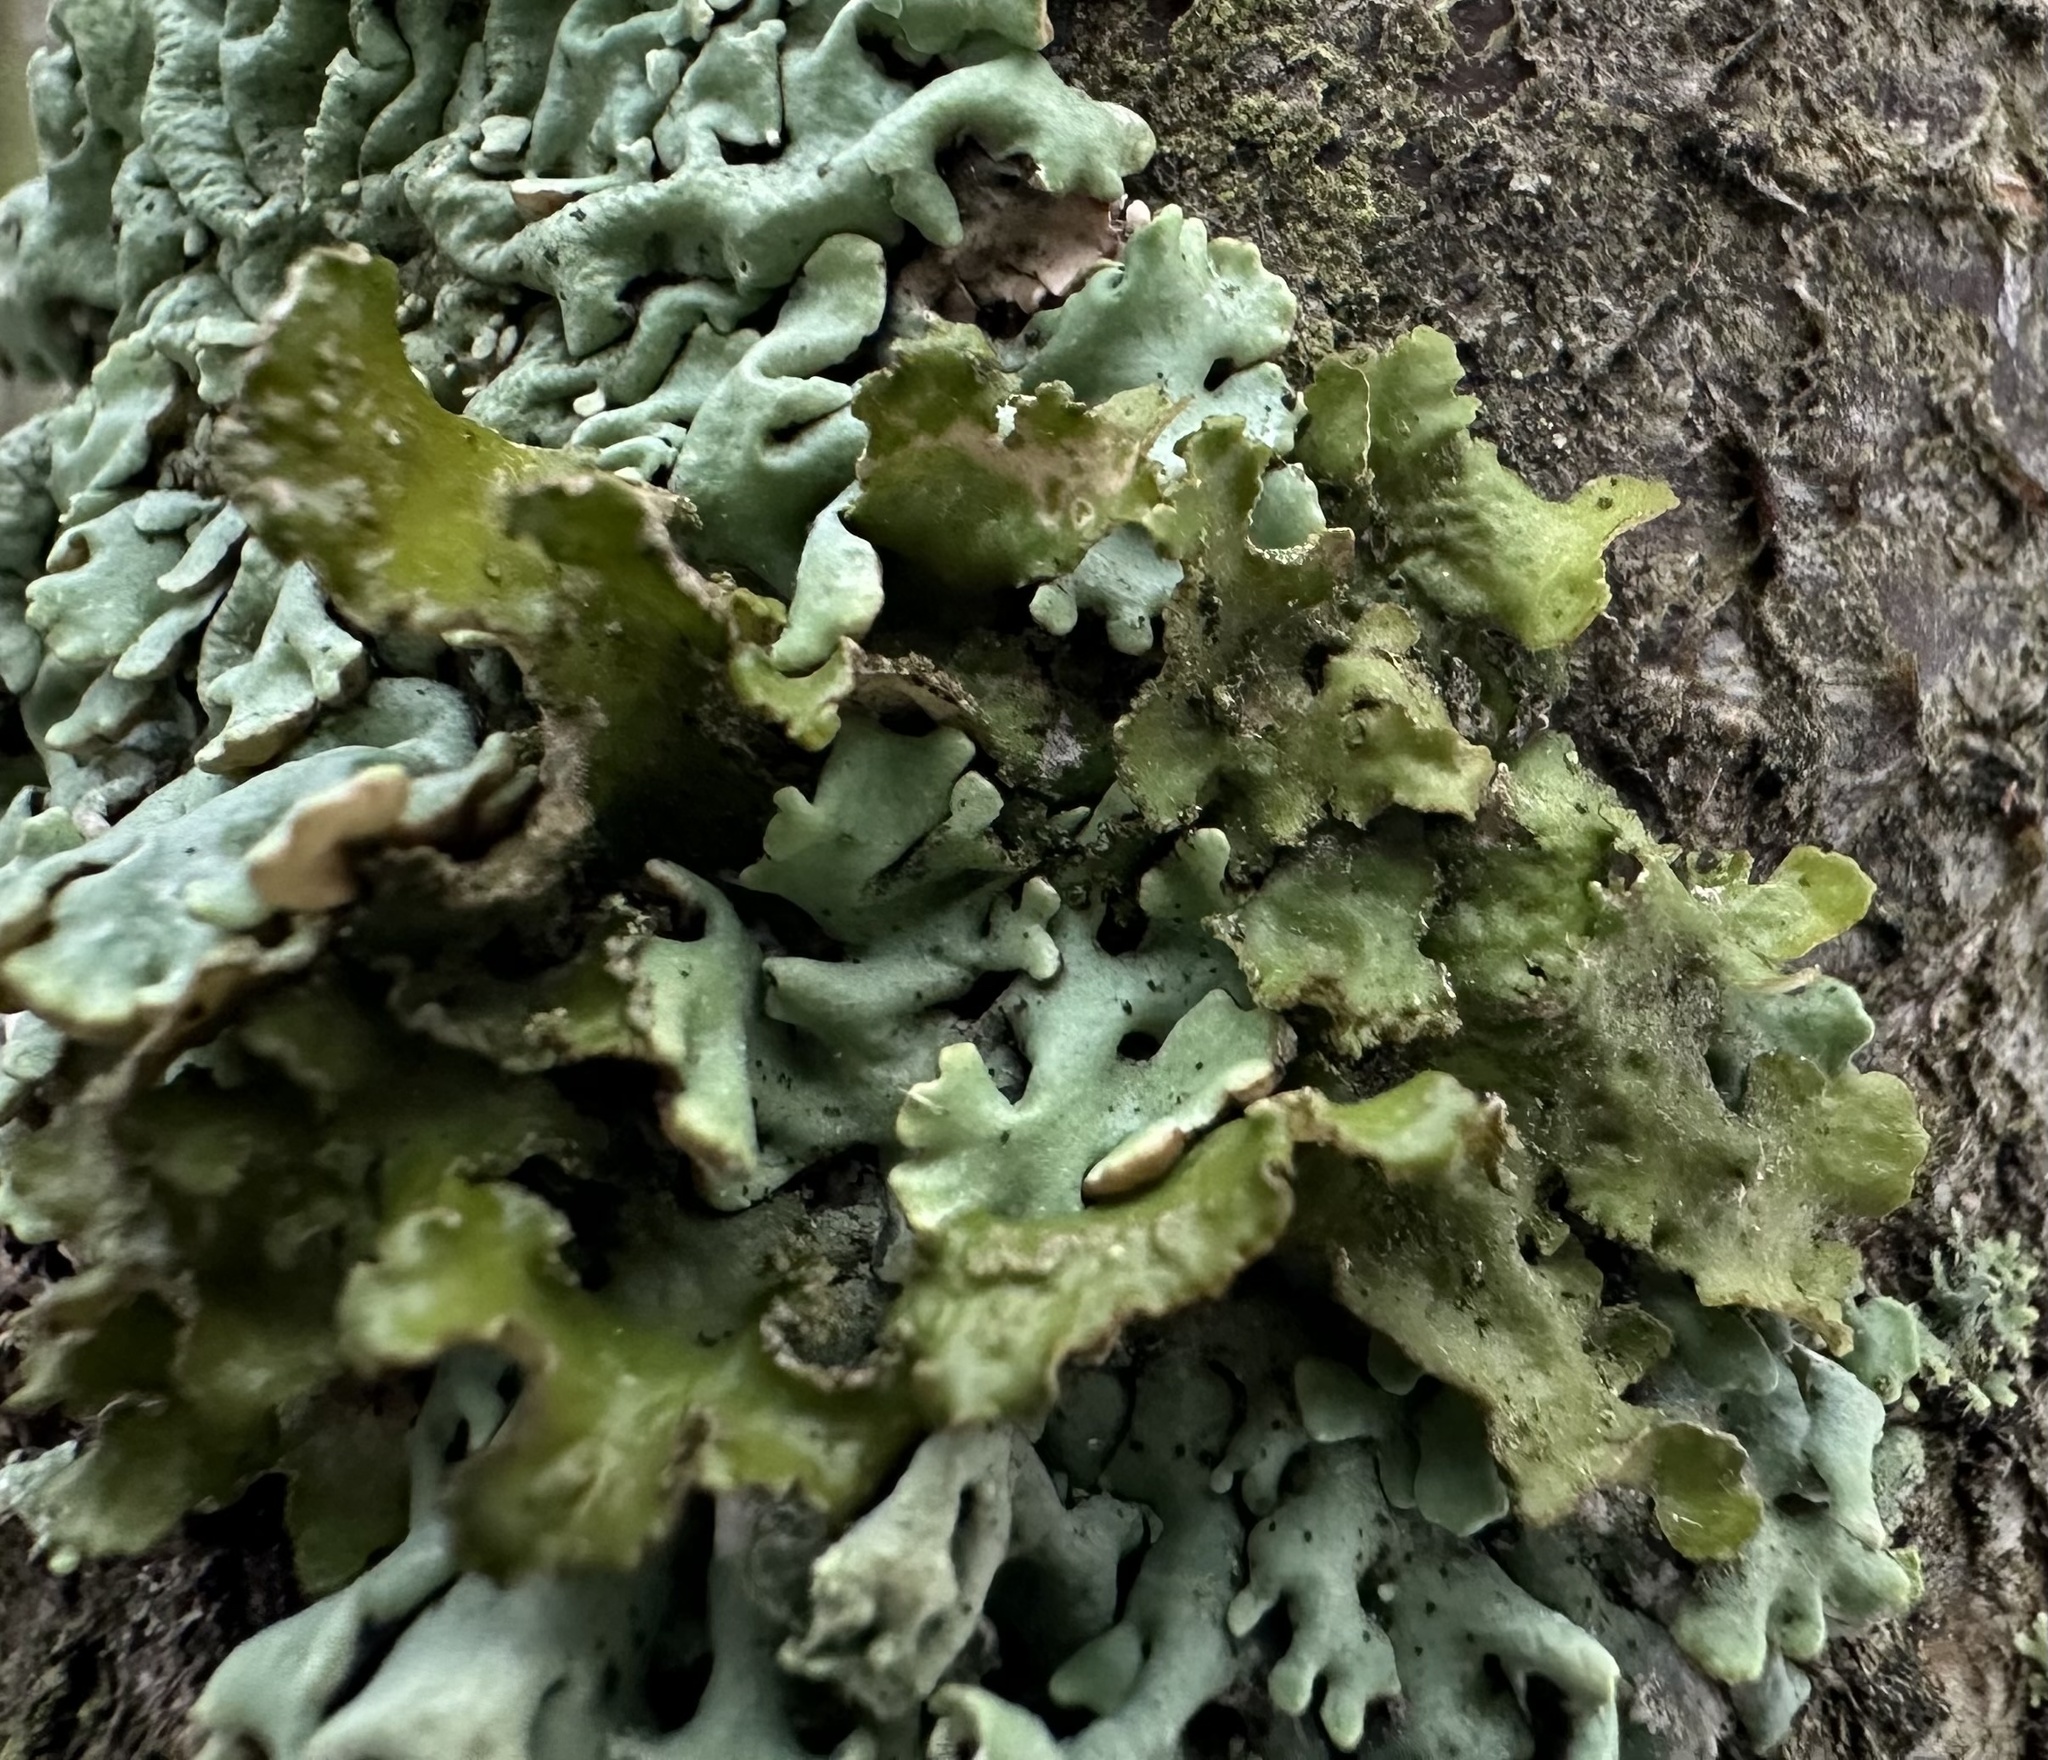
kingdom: Fungi
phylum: Ascomycota
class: Lecanoromycetes
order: Lecanorales
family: Parmeliaceae
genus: Nephromopsis
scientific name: Nephromopsis chlorophylla
